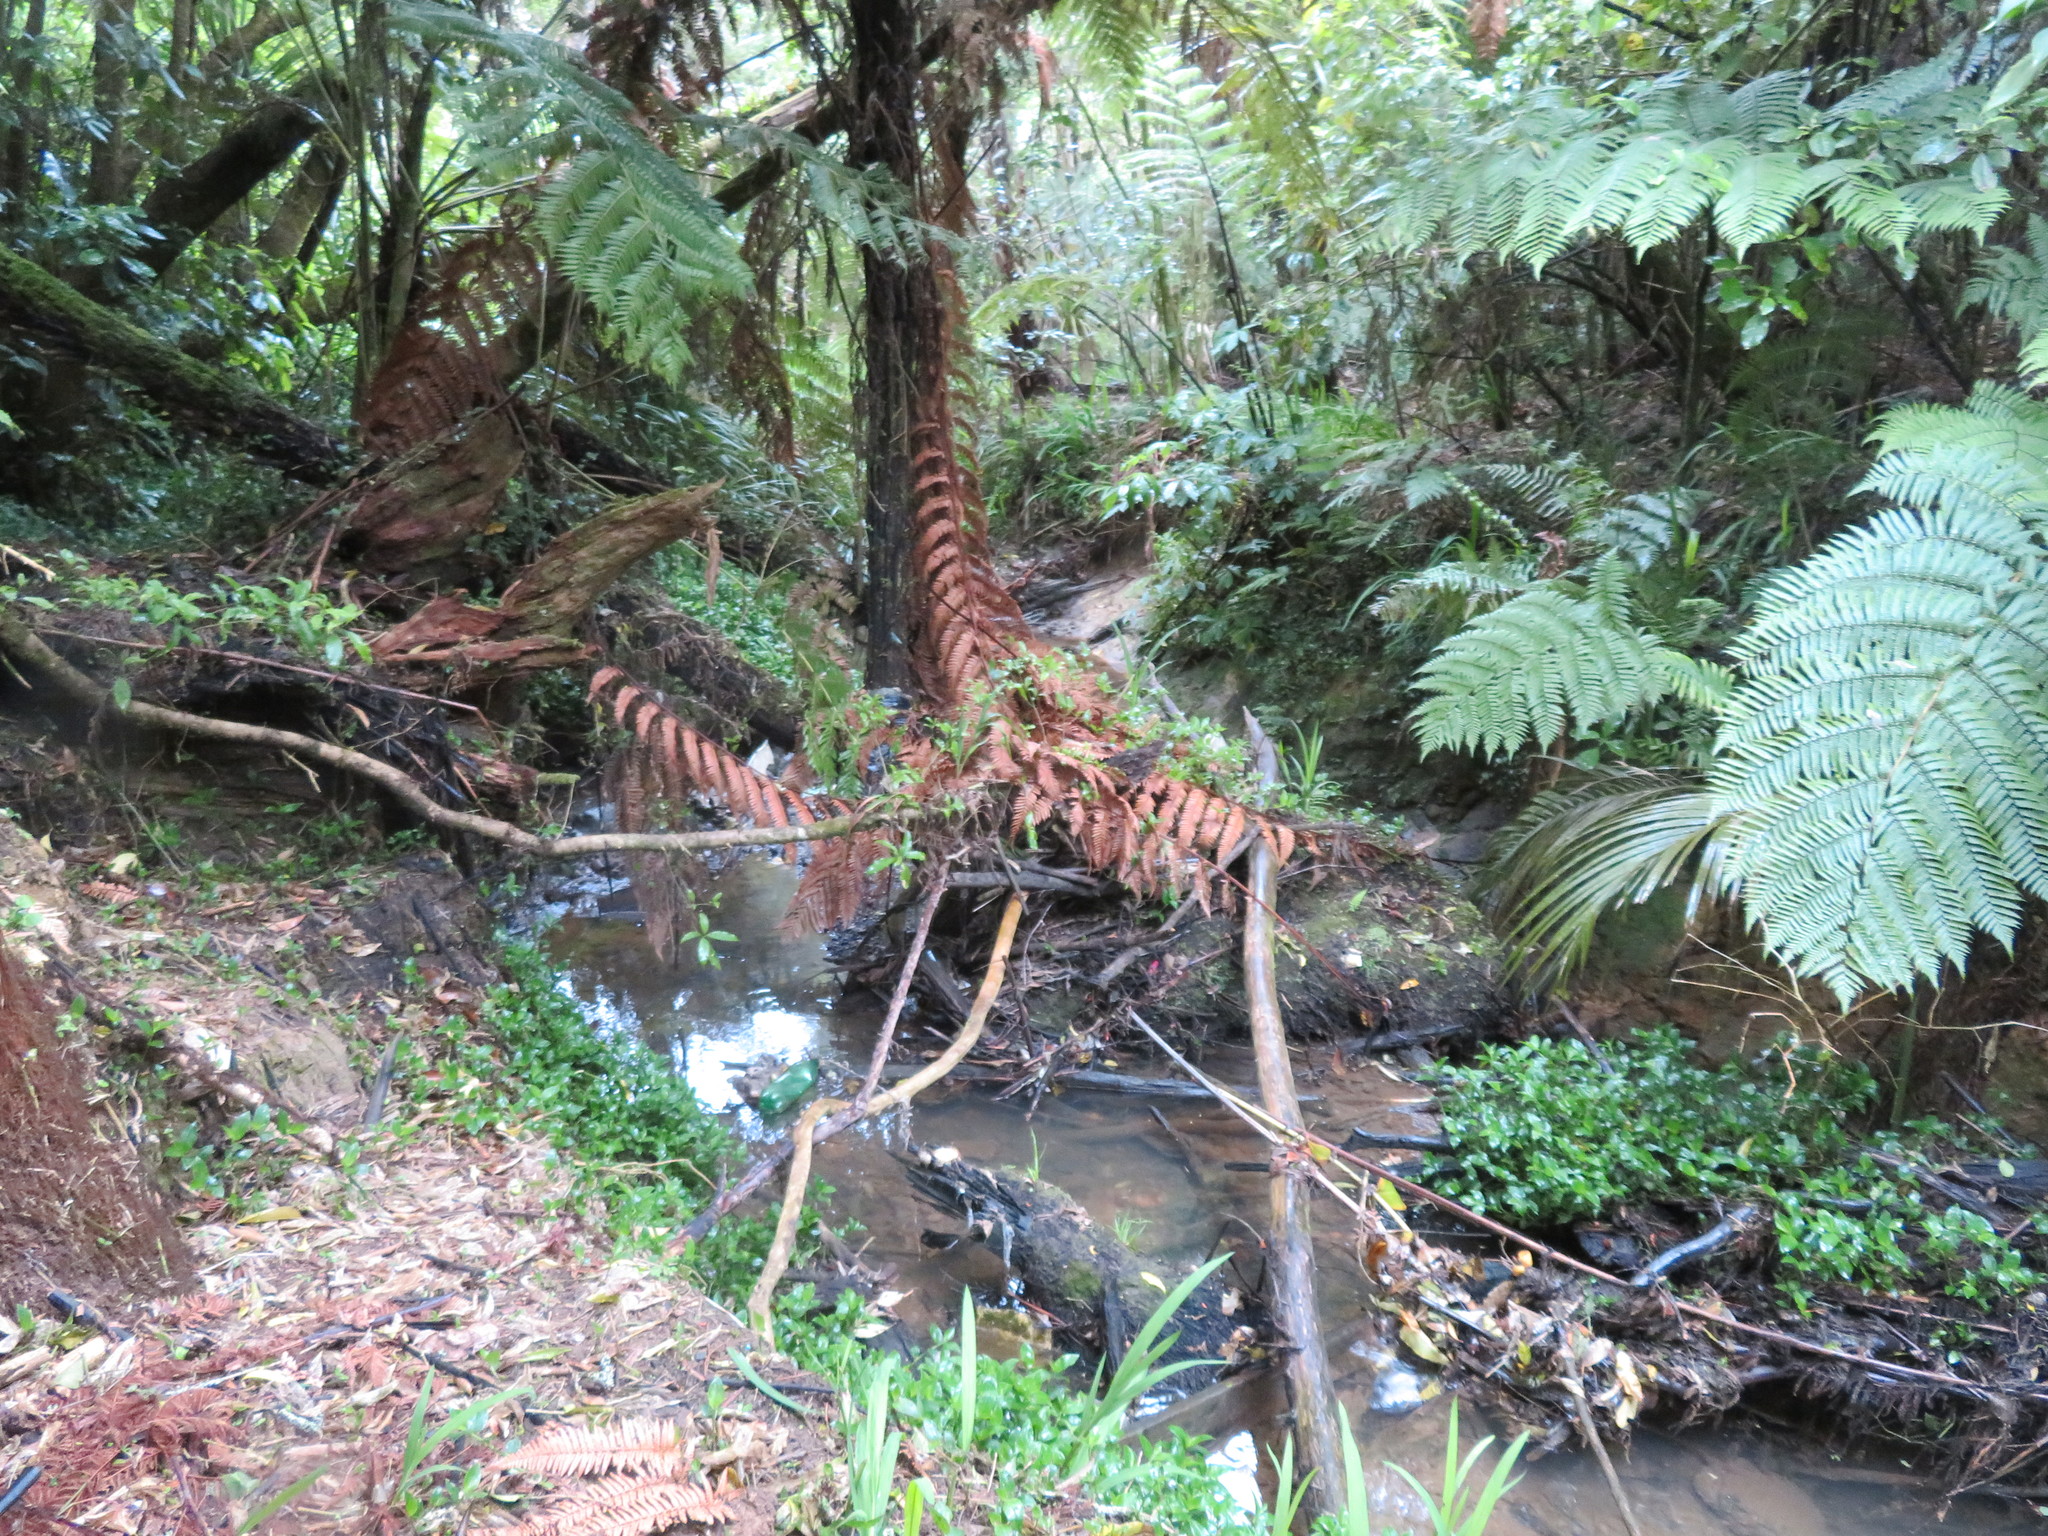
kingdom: Plantae
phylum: Tracheophyta
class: Liliopsida
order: Commelinales
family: Commelinaceae
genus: Tradescantia
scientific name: Tradescantia fluminensis
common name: Wandering-jew
